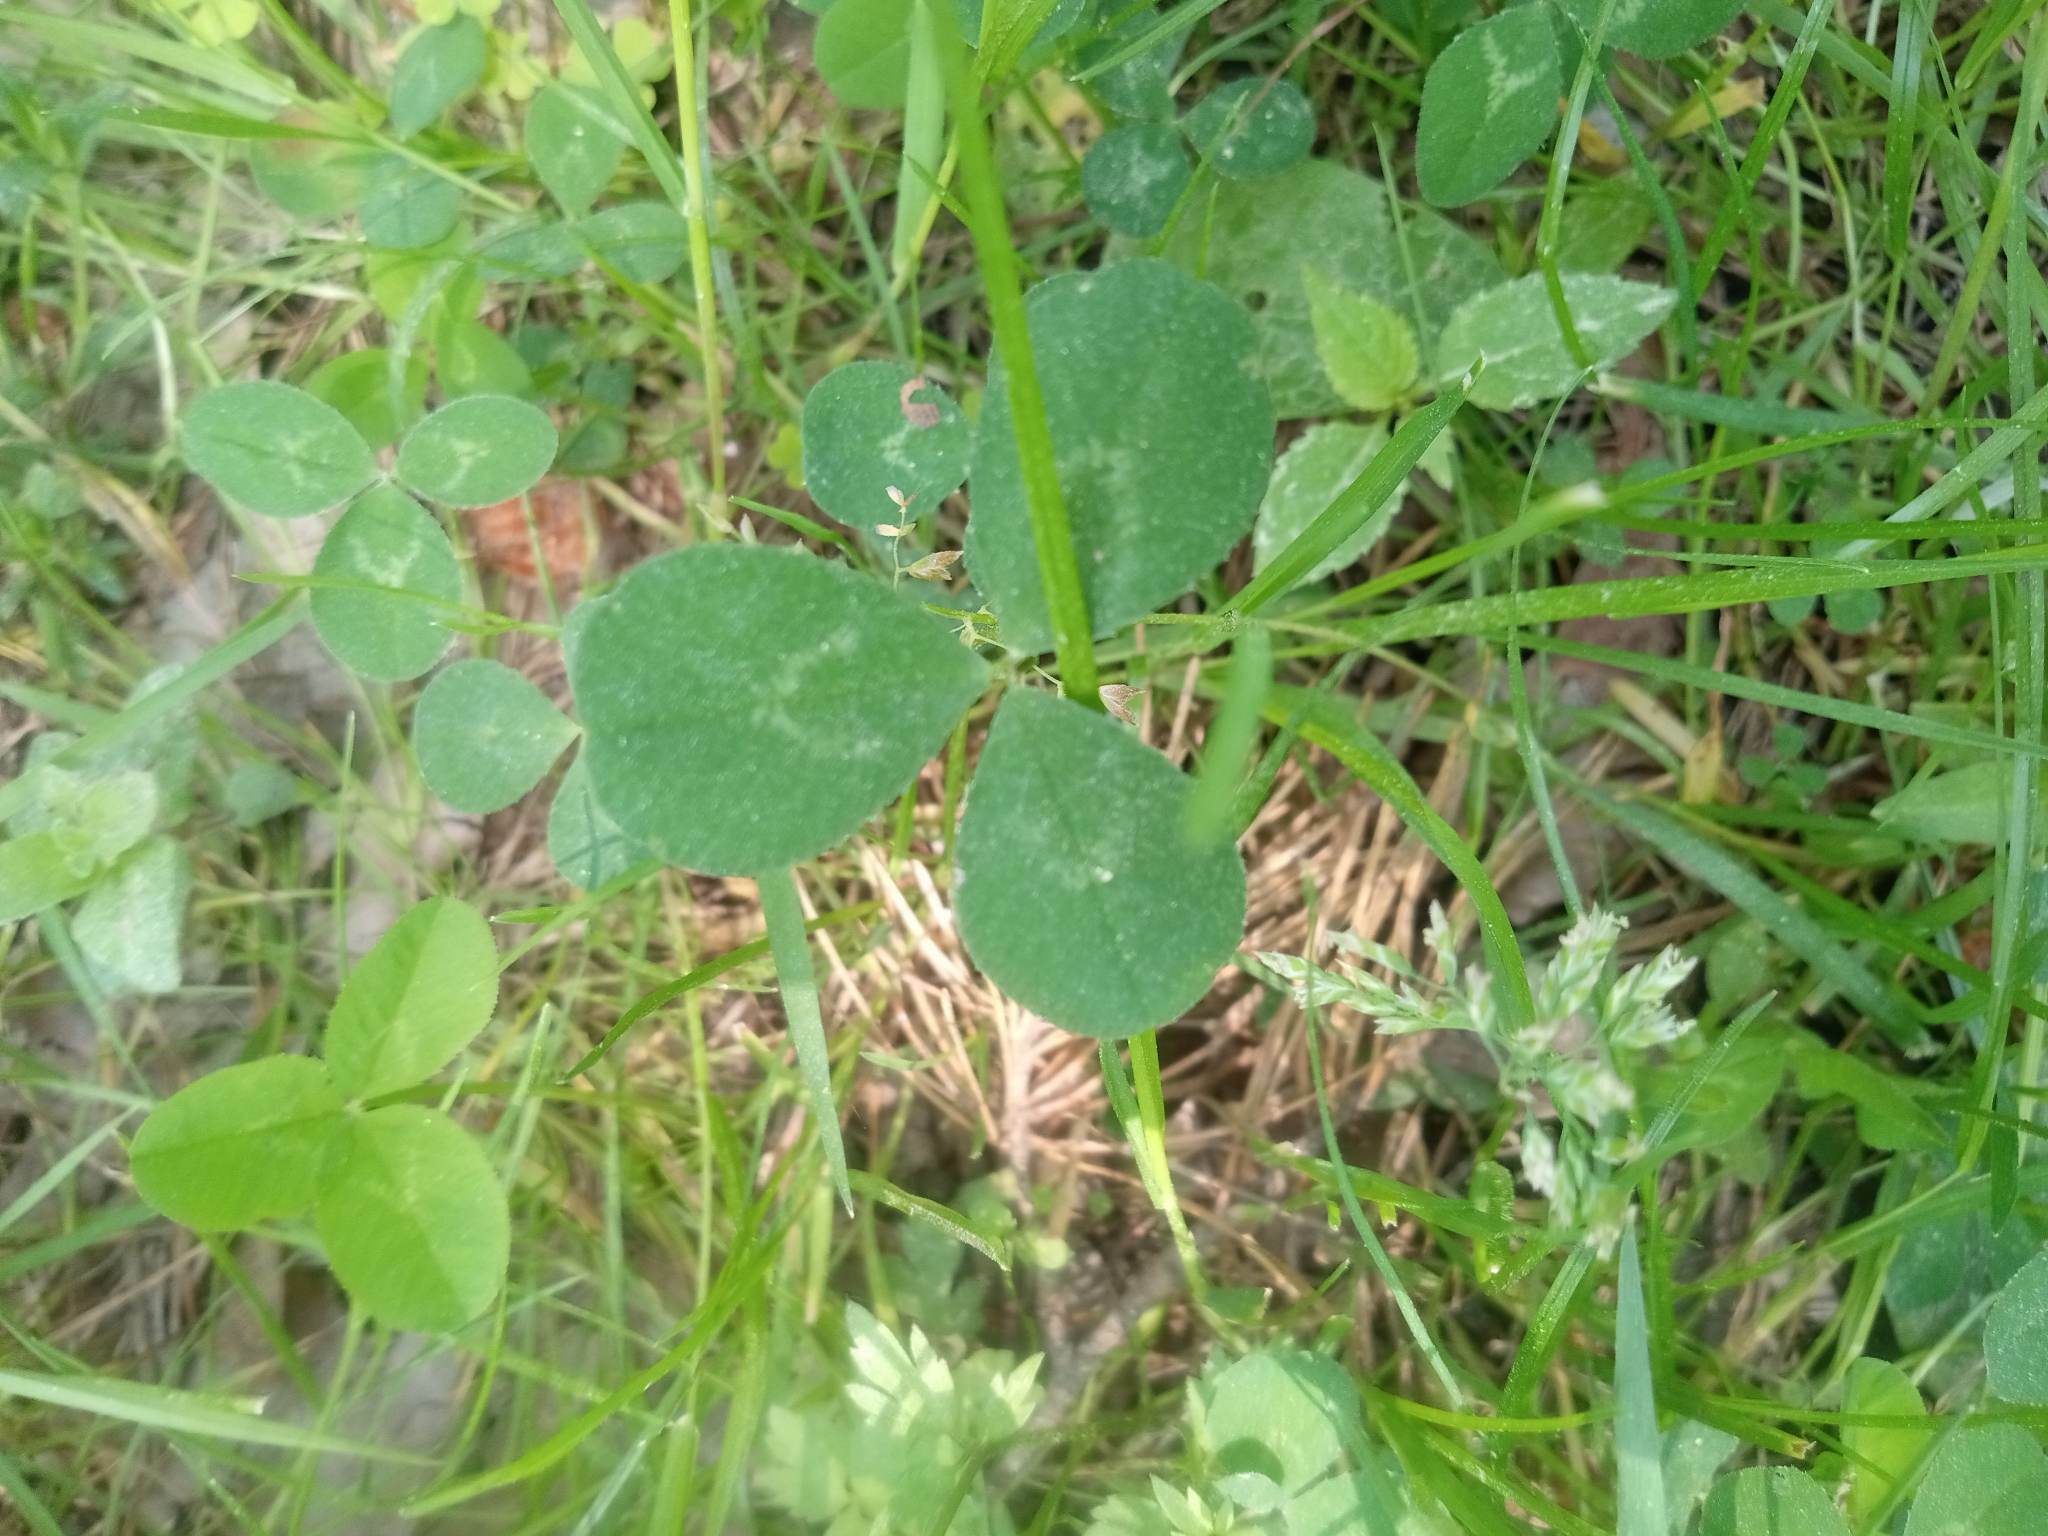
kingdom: Plantae
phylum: Tracheophyta
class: Magnoliopsida
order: Fabales
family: Fabaceae
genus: Trifolium
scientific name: Trifolium repens
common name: White clover
